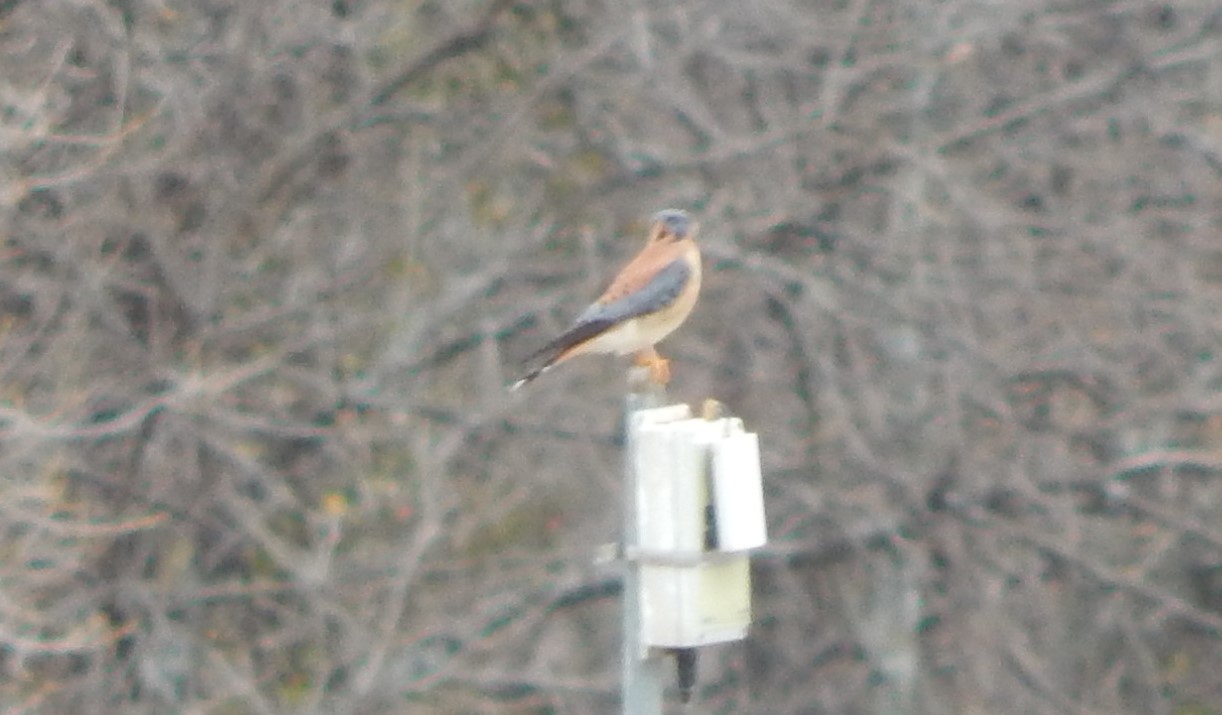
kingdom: Animalia
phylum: Chordata
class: Aves
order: Falconiformes
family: Falconidae
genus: Falco
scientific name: Falco sparverius
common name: American kestrel
